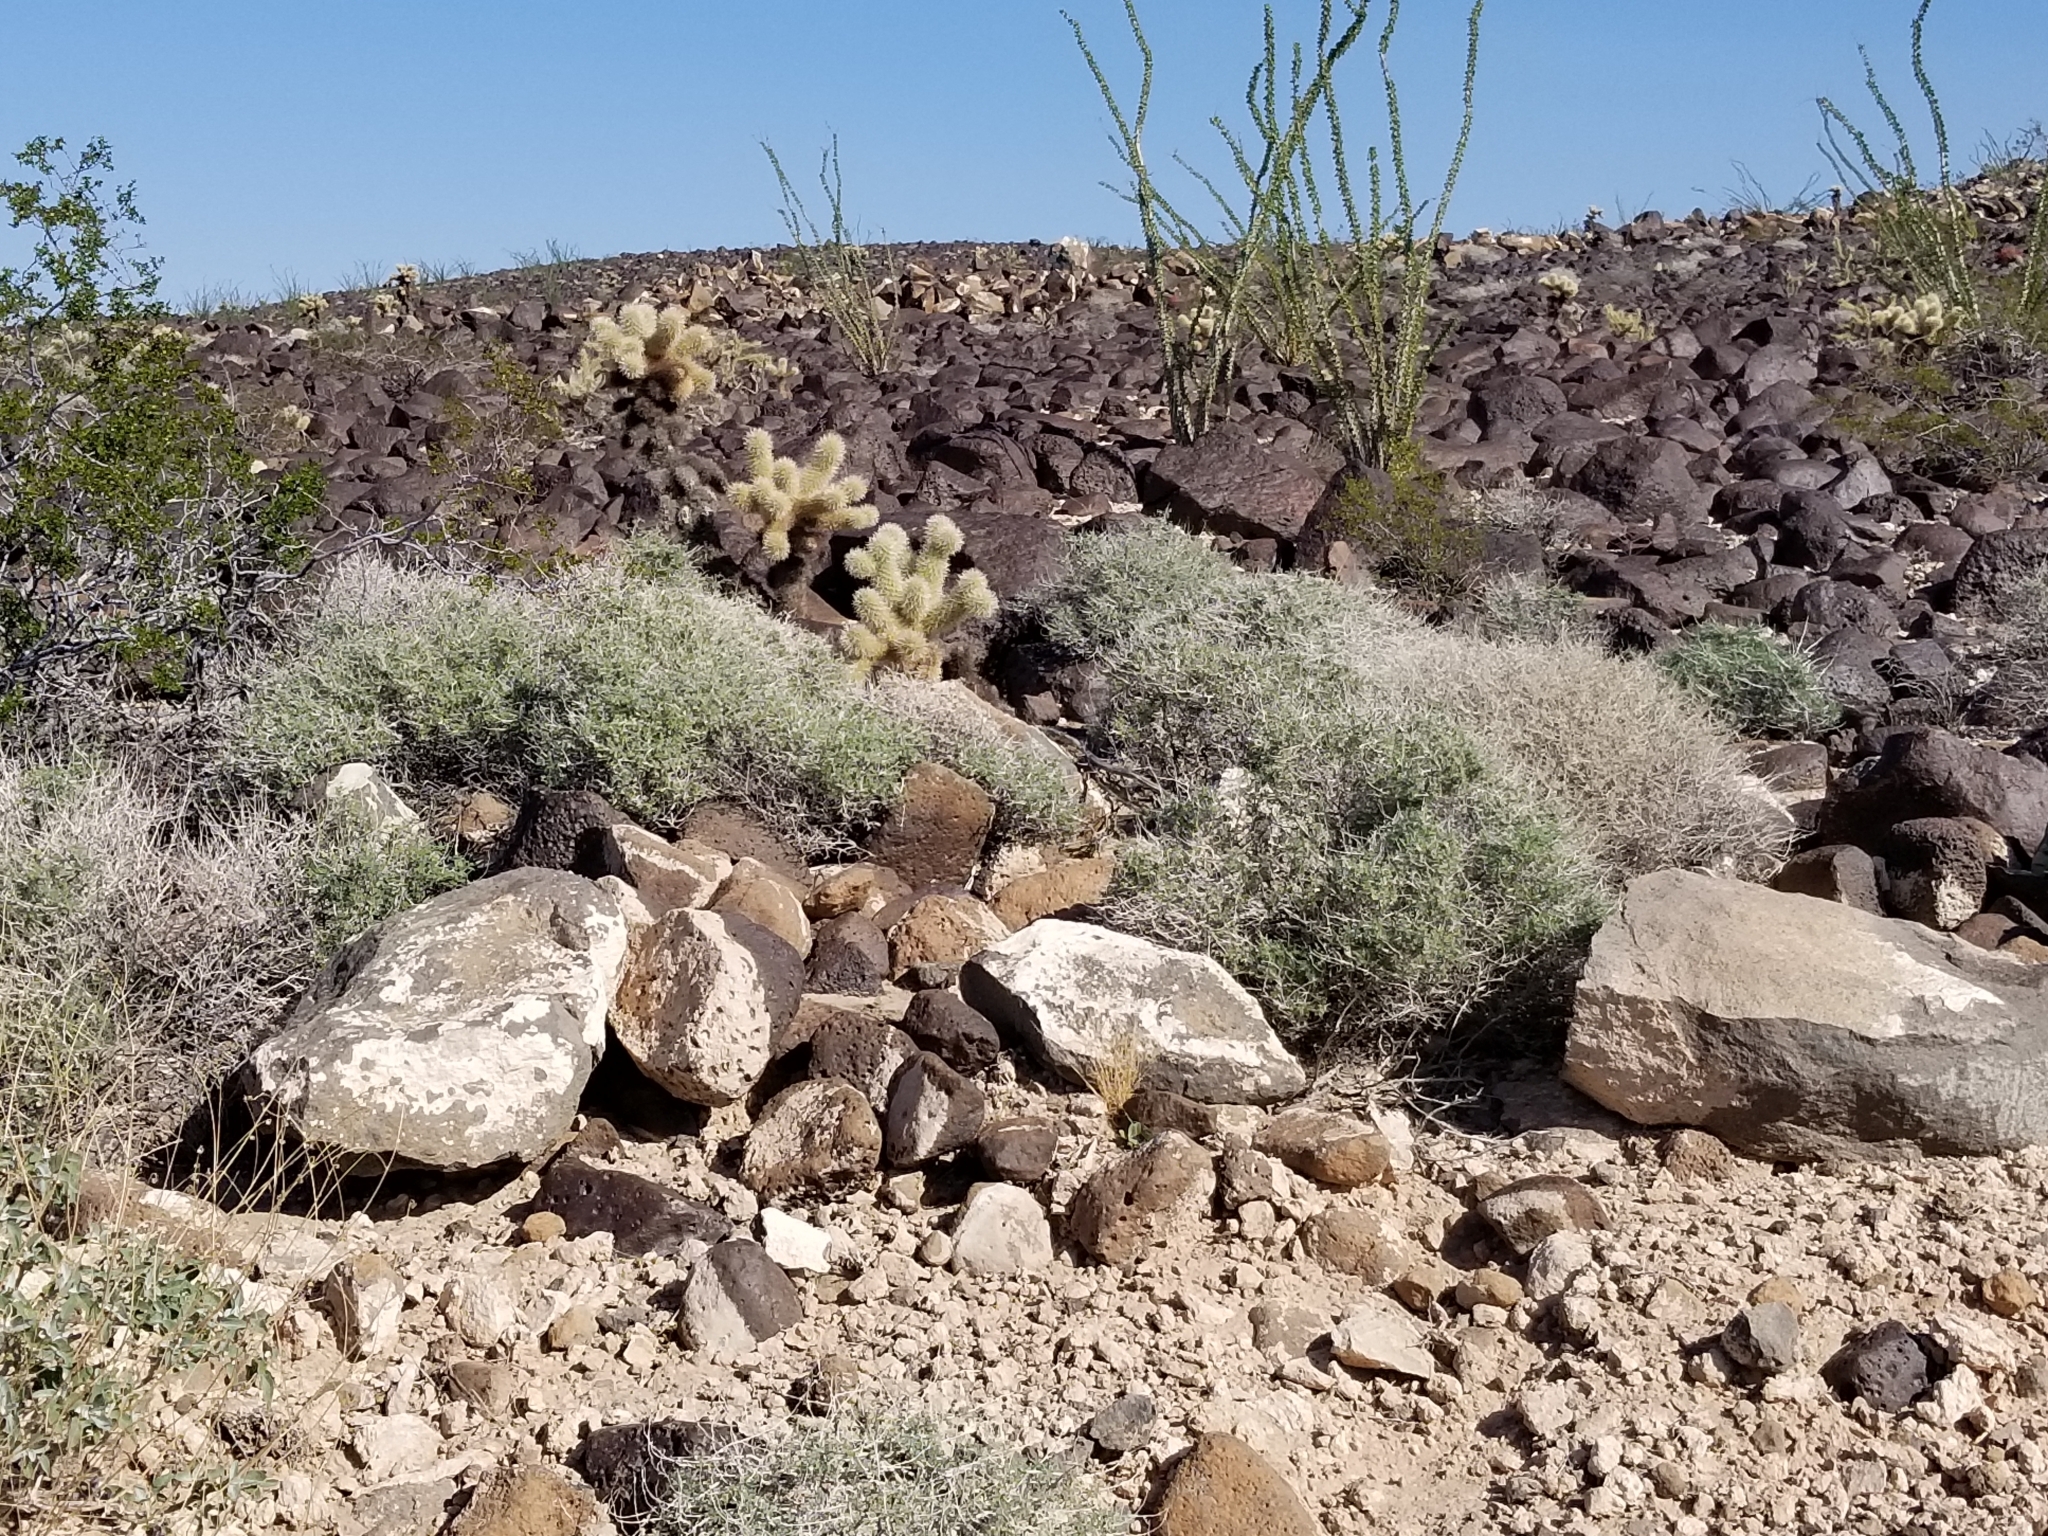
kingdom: Plantae
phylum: Tracheophyta
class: Magnoliopsida
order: Asterales
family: Asteraceae
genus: Ambrosia
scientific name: Ambrosia dumosa
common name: Bur-sage
